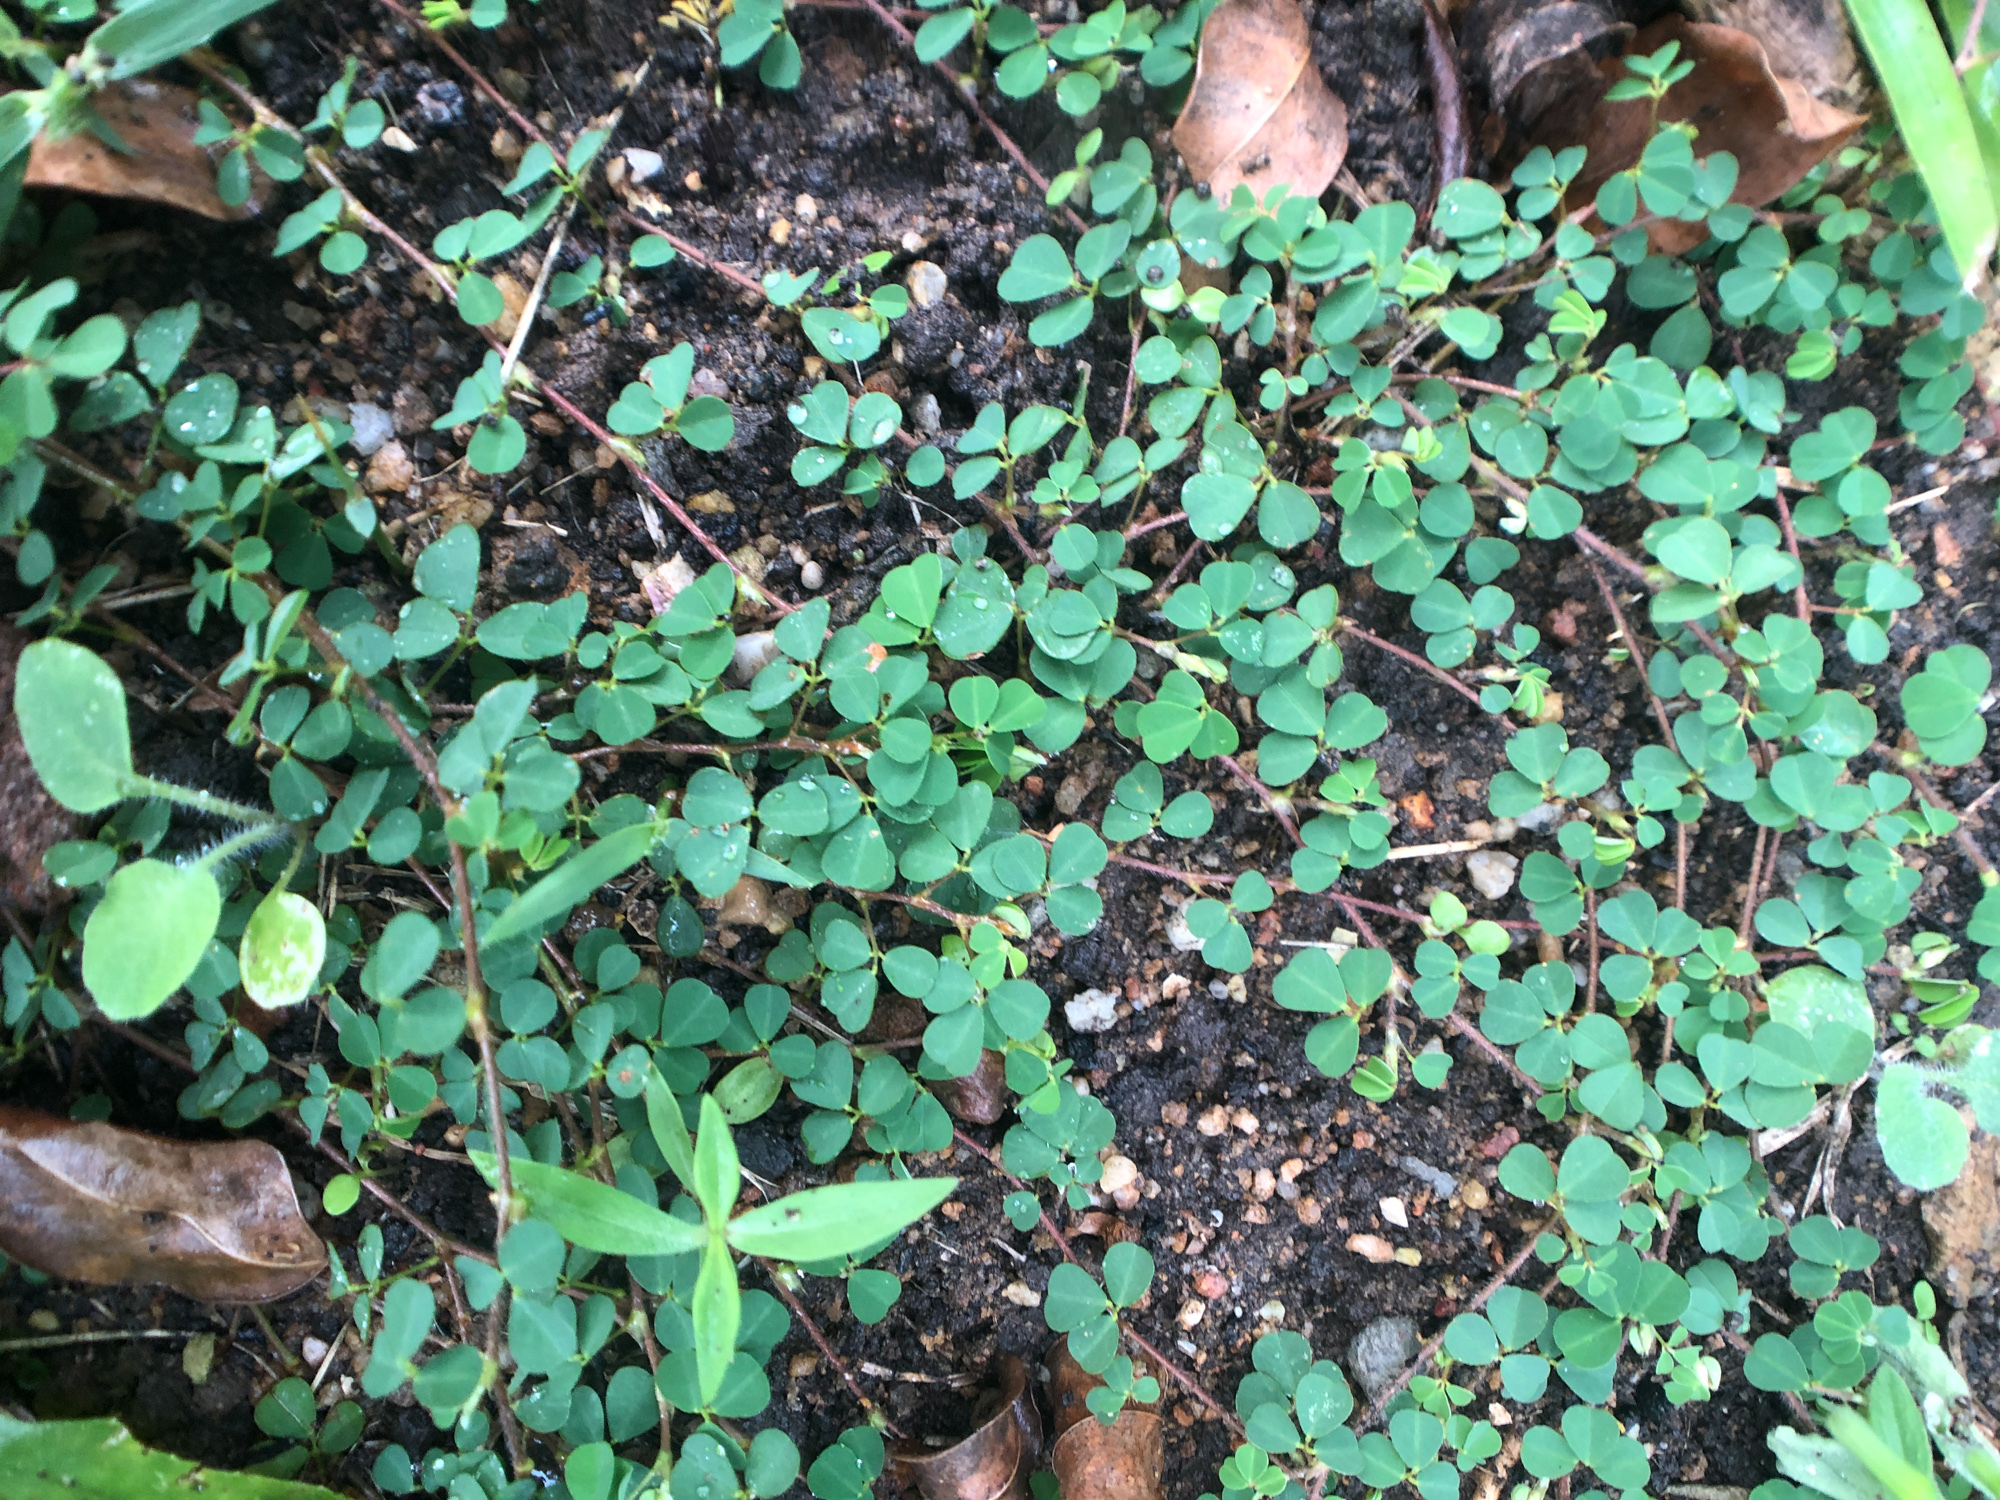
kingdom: Plantae
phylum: Tracheophyta
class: Magnoliopsida
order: Fabales
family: Fabaceae
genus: Grona
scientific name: Grona triflora
